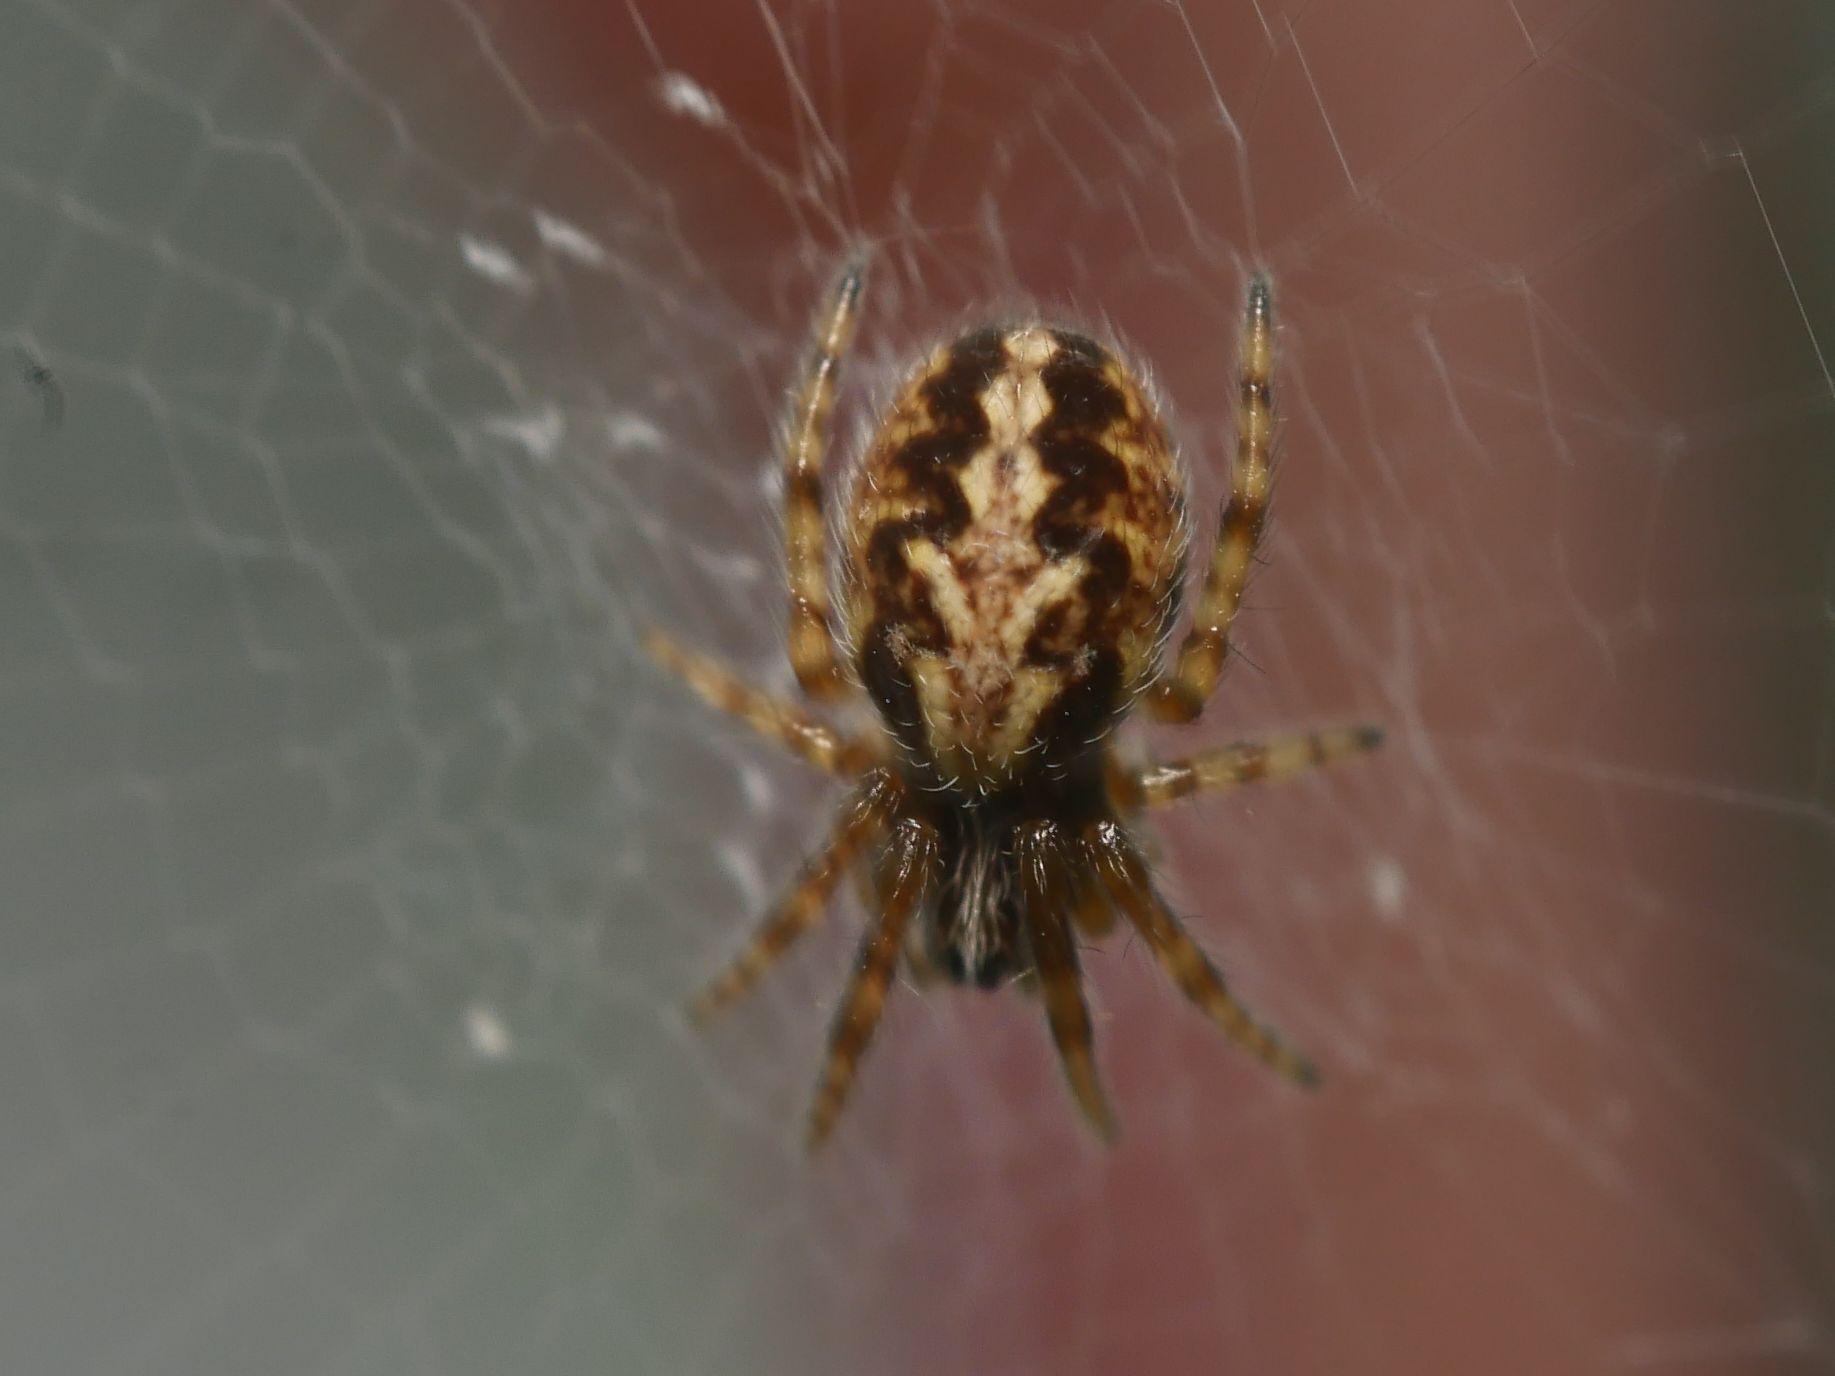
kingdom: Animalia
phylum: Arthropoda
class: Arachnida
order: Araneae
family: Araneidae
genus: Aculepeira
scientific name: Aculepeira ceropegia
